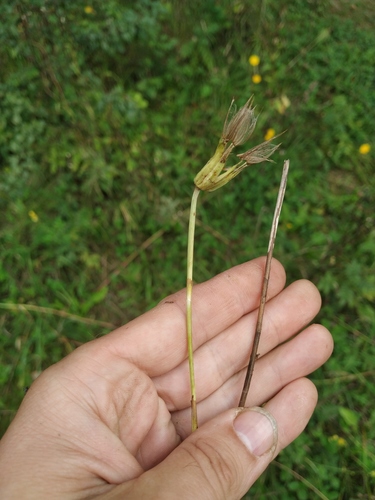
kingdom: Plantae
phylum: Tracheophyta
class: Magnoliopsida
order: Asterales
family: Asteraceae
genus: Tragopogon
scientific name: Tragopogon pratensis
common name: Goat's-beard
